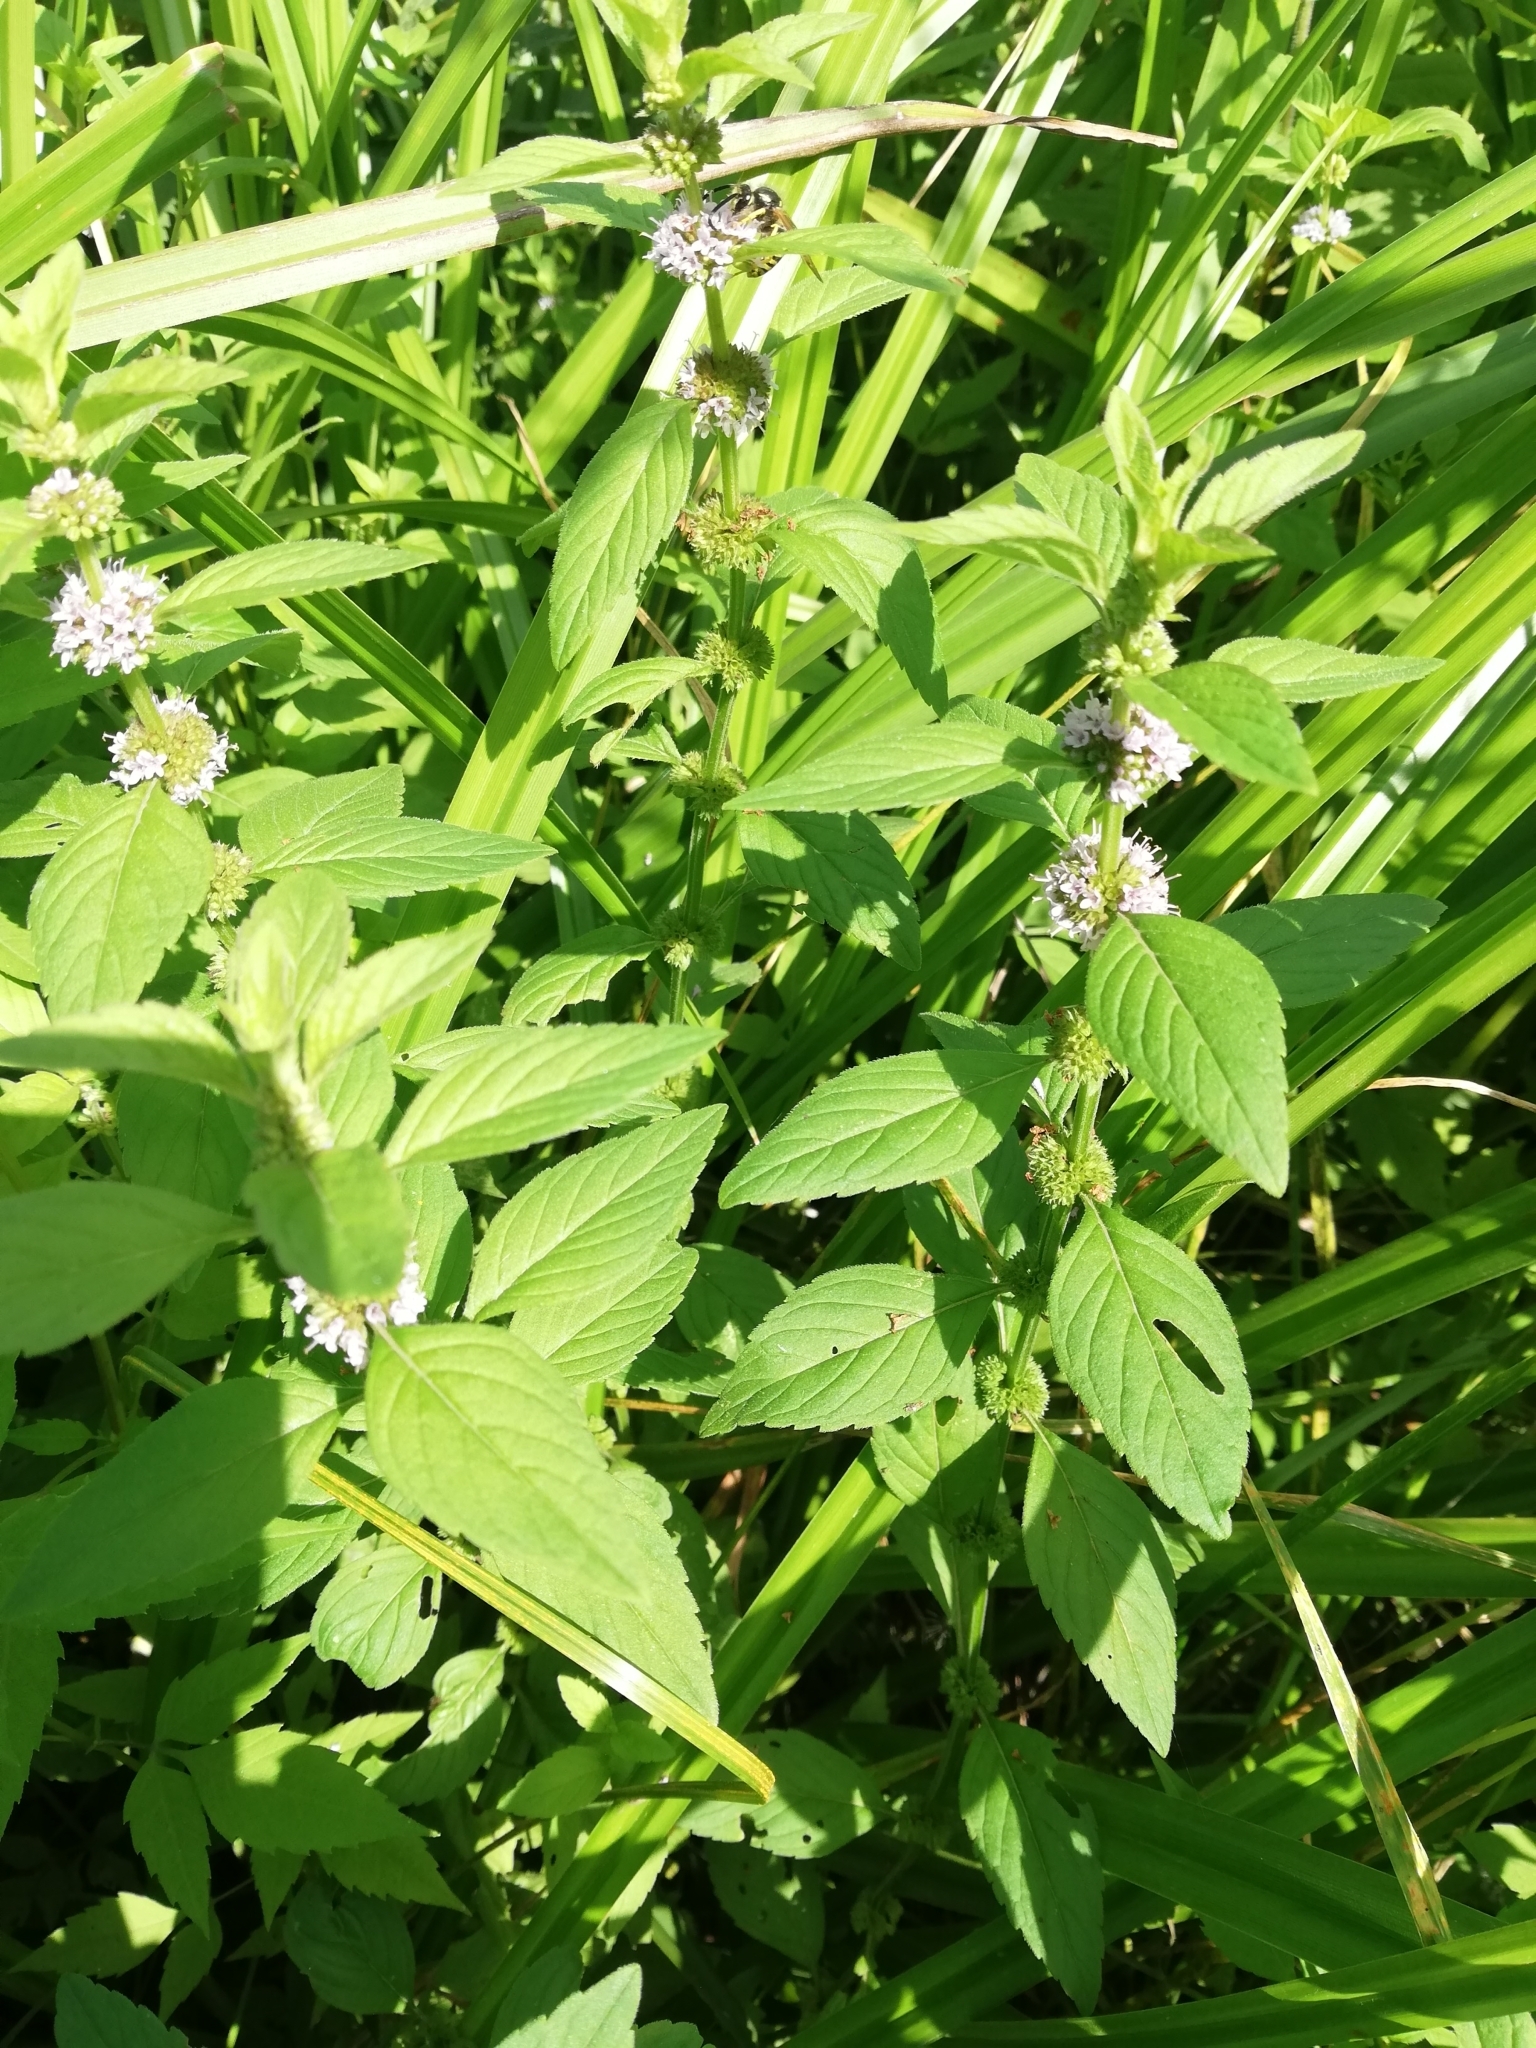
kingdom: Plantae
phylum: Tracheophyta
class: Magnoliopsida
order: Lamiales
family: Lamiaceae
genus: Mentha
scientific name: Mentha arvensis
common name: Corn mint
